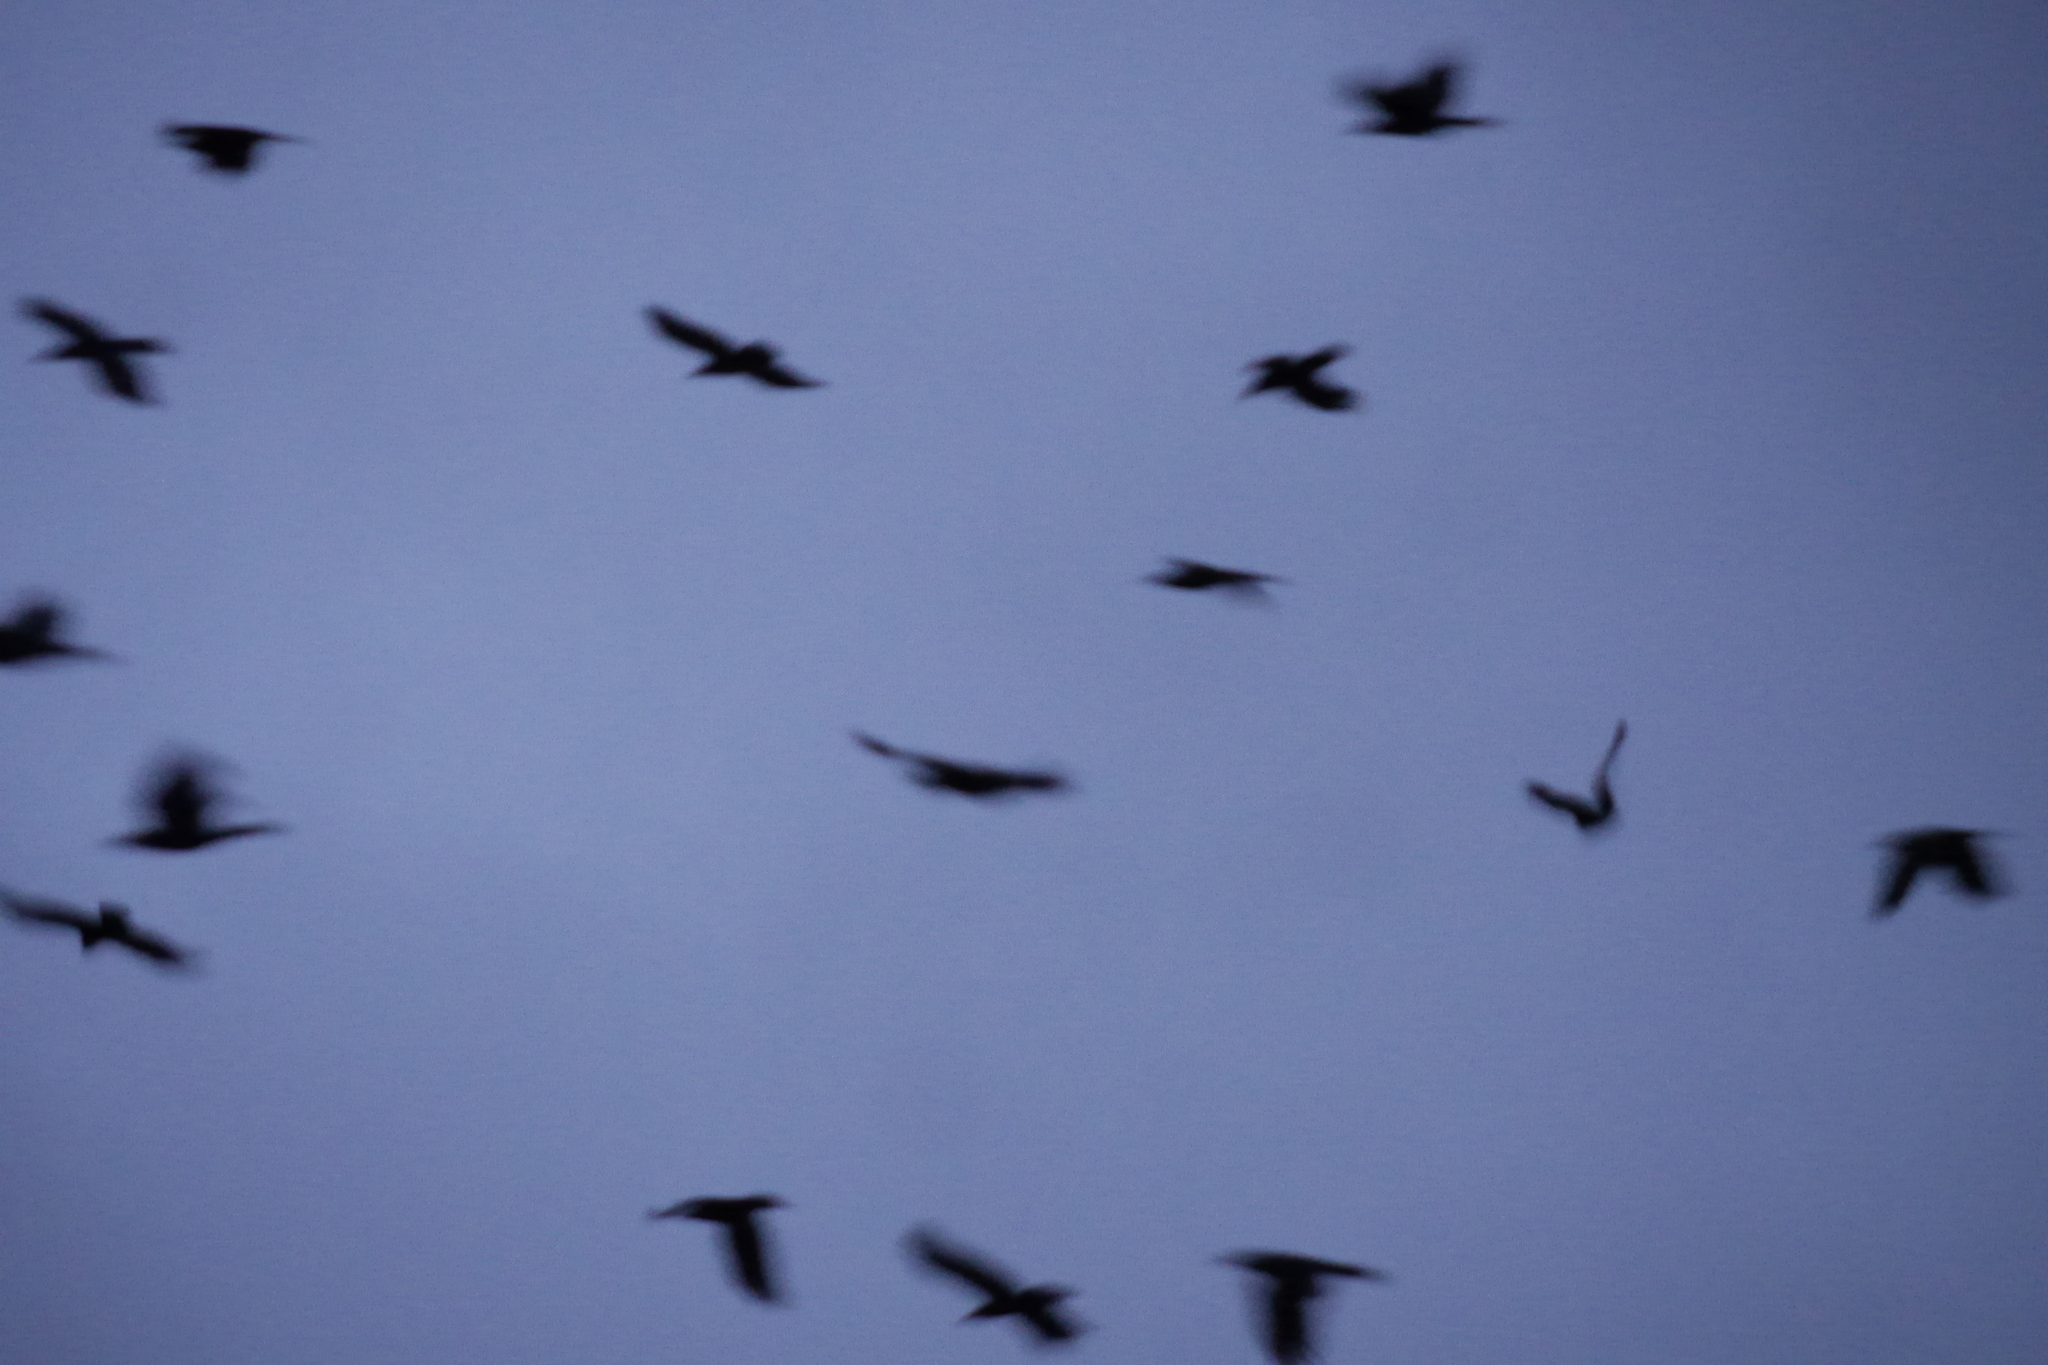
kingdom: Animalia
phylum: Chordata
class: Aves
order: Passeriformes
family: Corvidae
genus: Corvus
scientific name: Corvus corone
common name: Carrion crow
